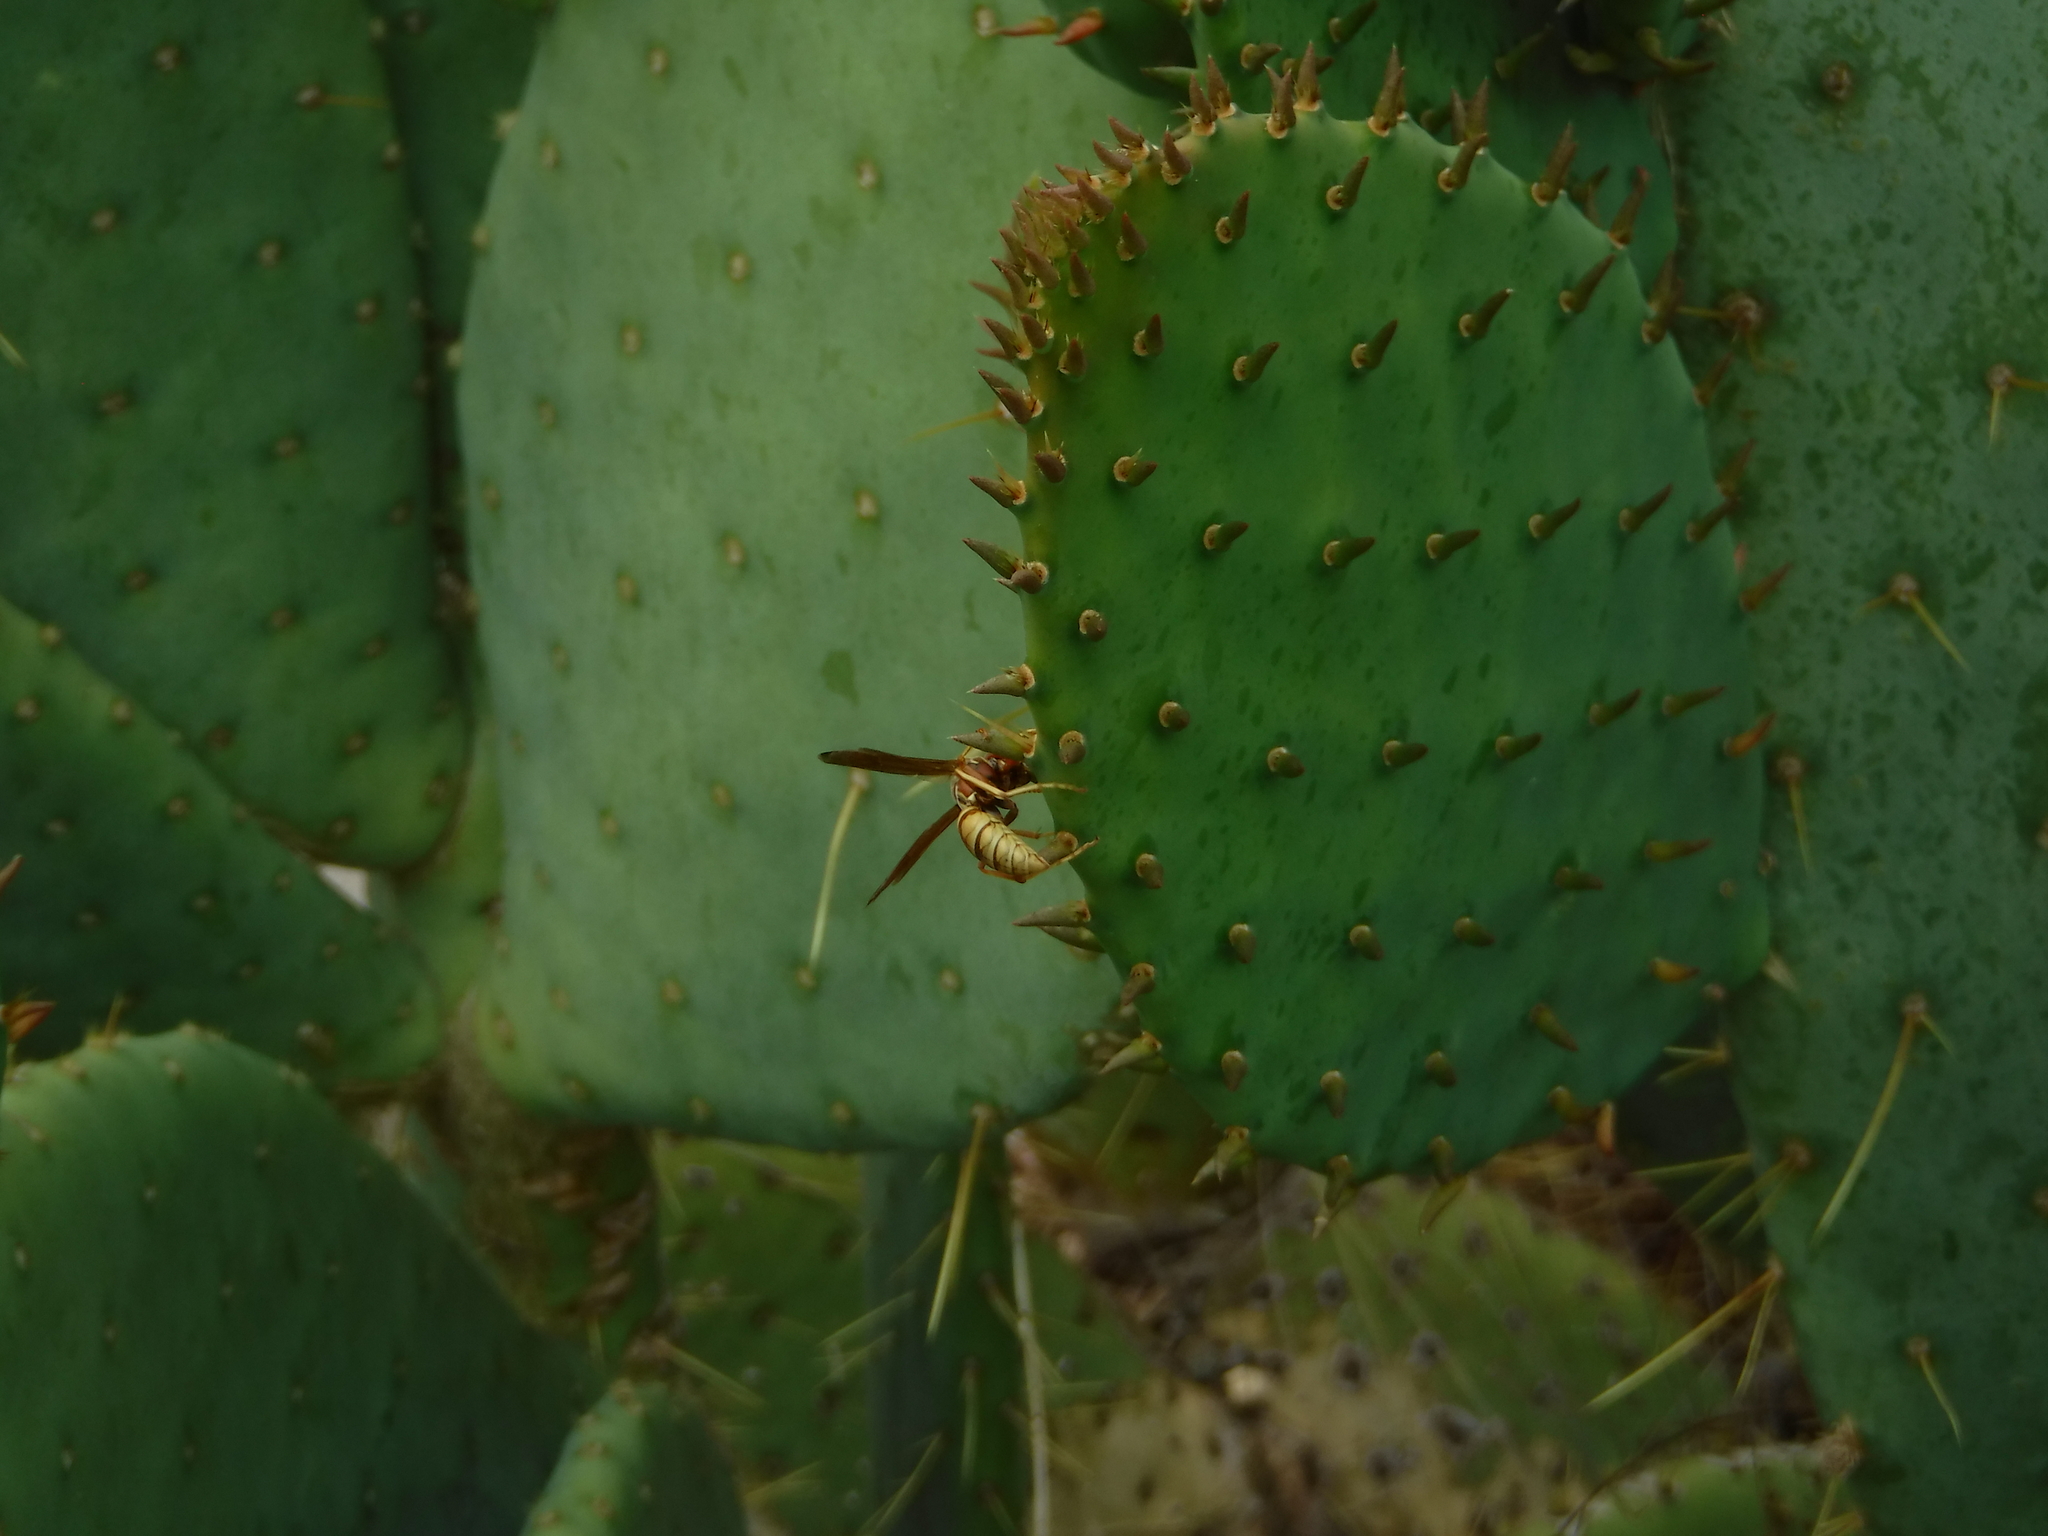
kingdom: Animalia
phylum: Arthropoda
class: Insecta
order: Hymenoptera
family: Eumenidae
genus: Polistes
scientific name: Polistes aurifer
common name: Paper wasp
